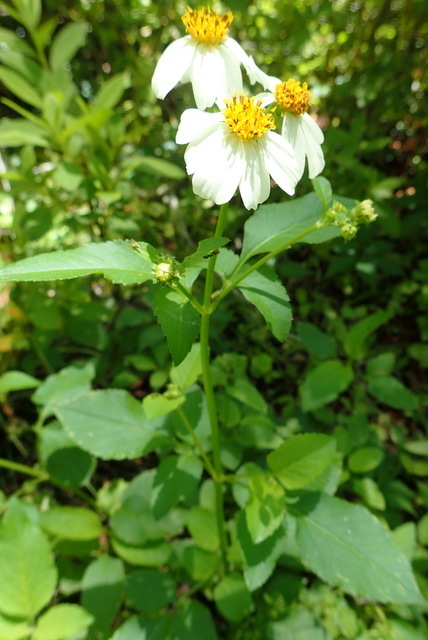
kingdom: Plantae
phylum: Tracheophyta
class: Magnoliopsida
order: Asterales
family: Asteraceae
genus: Bidens
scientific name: Bidens alba
